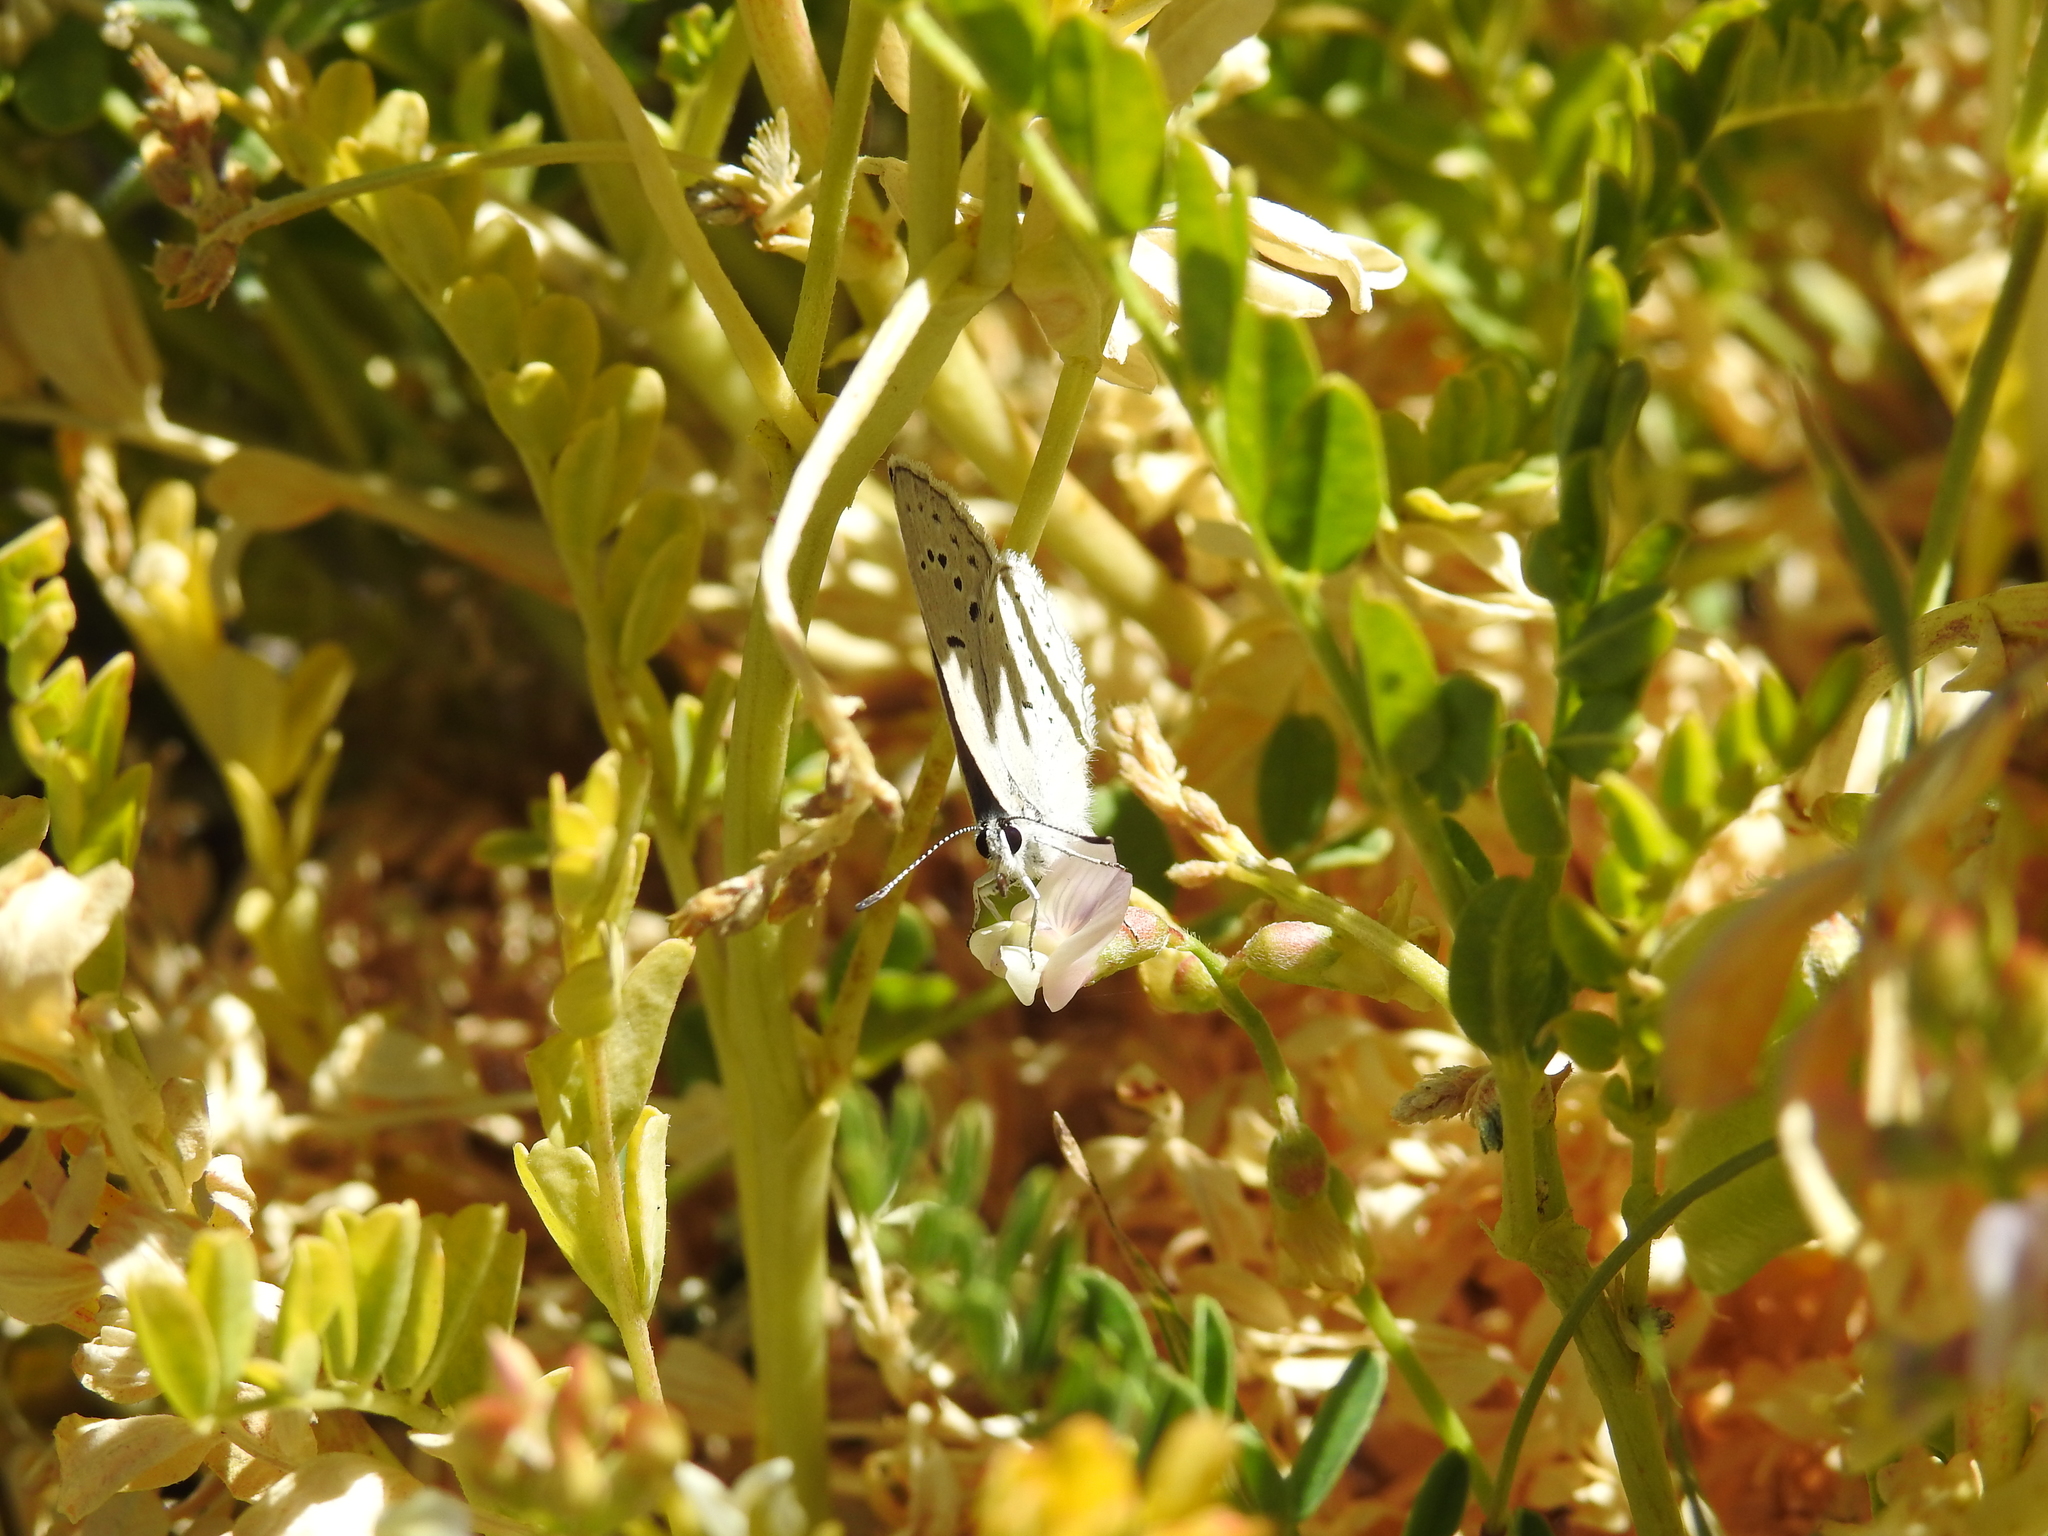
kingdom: Plantae
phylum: Tracheophyta
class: Magnoliopsida
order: Fabales
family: Fabaceae
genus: Astragalus
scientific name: Astragalus gruinus
